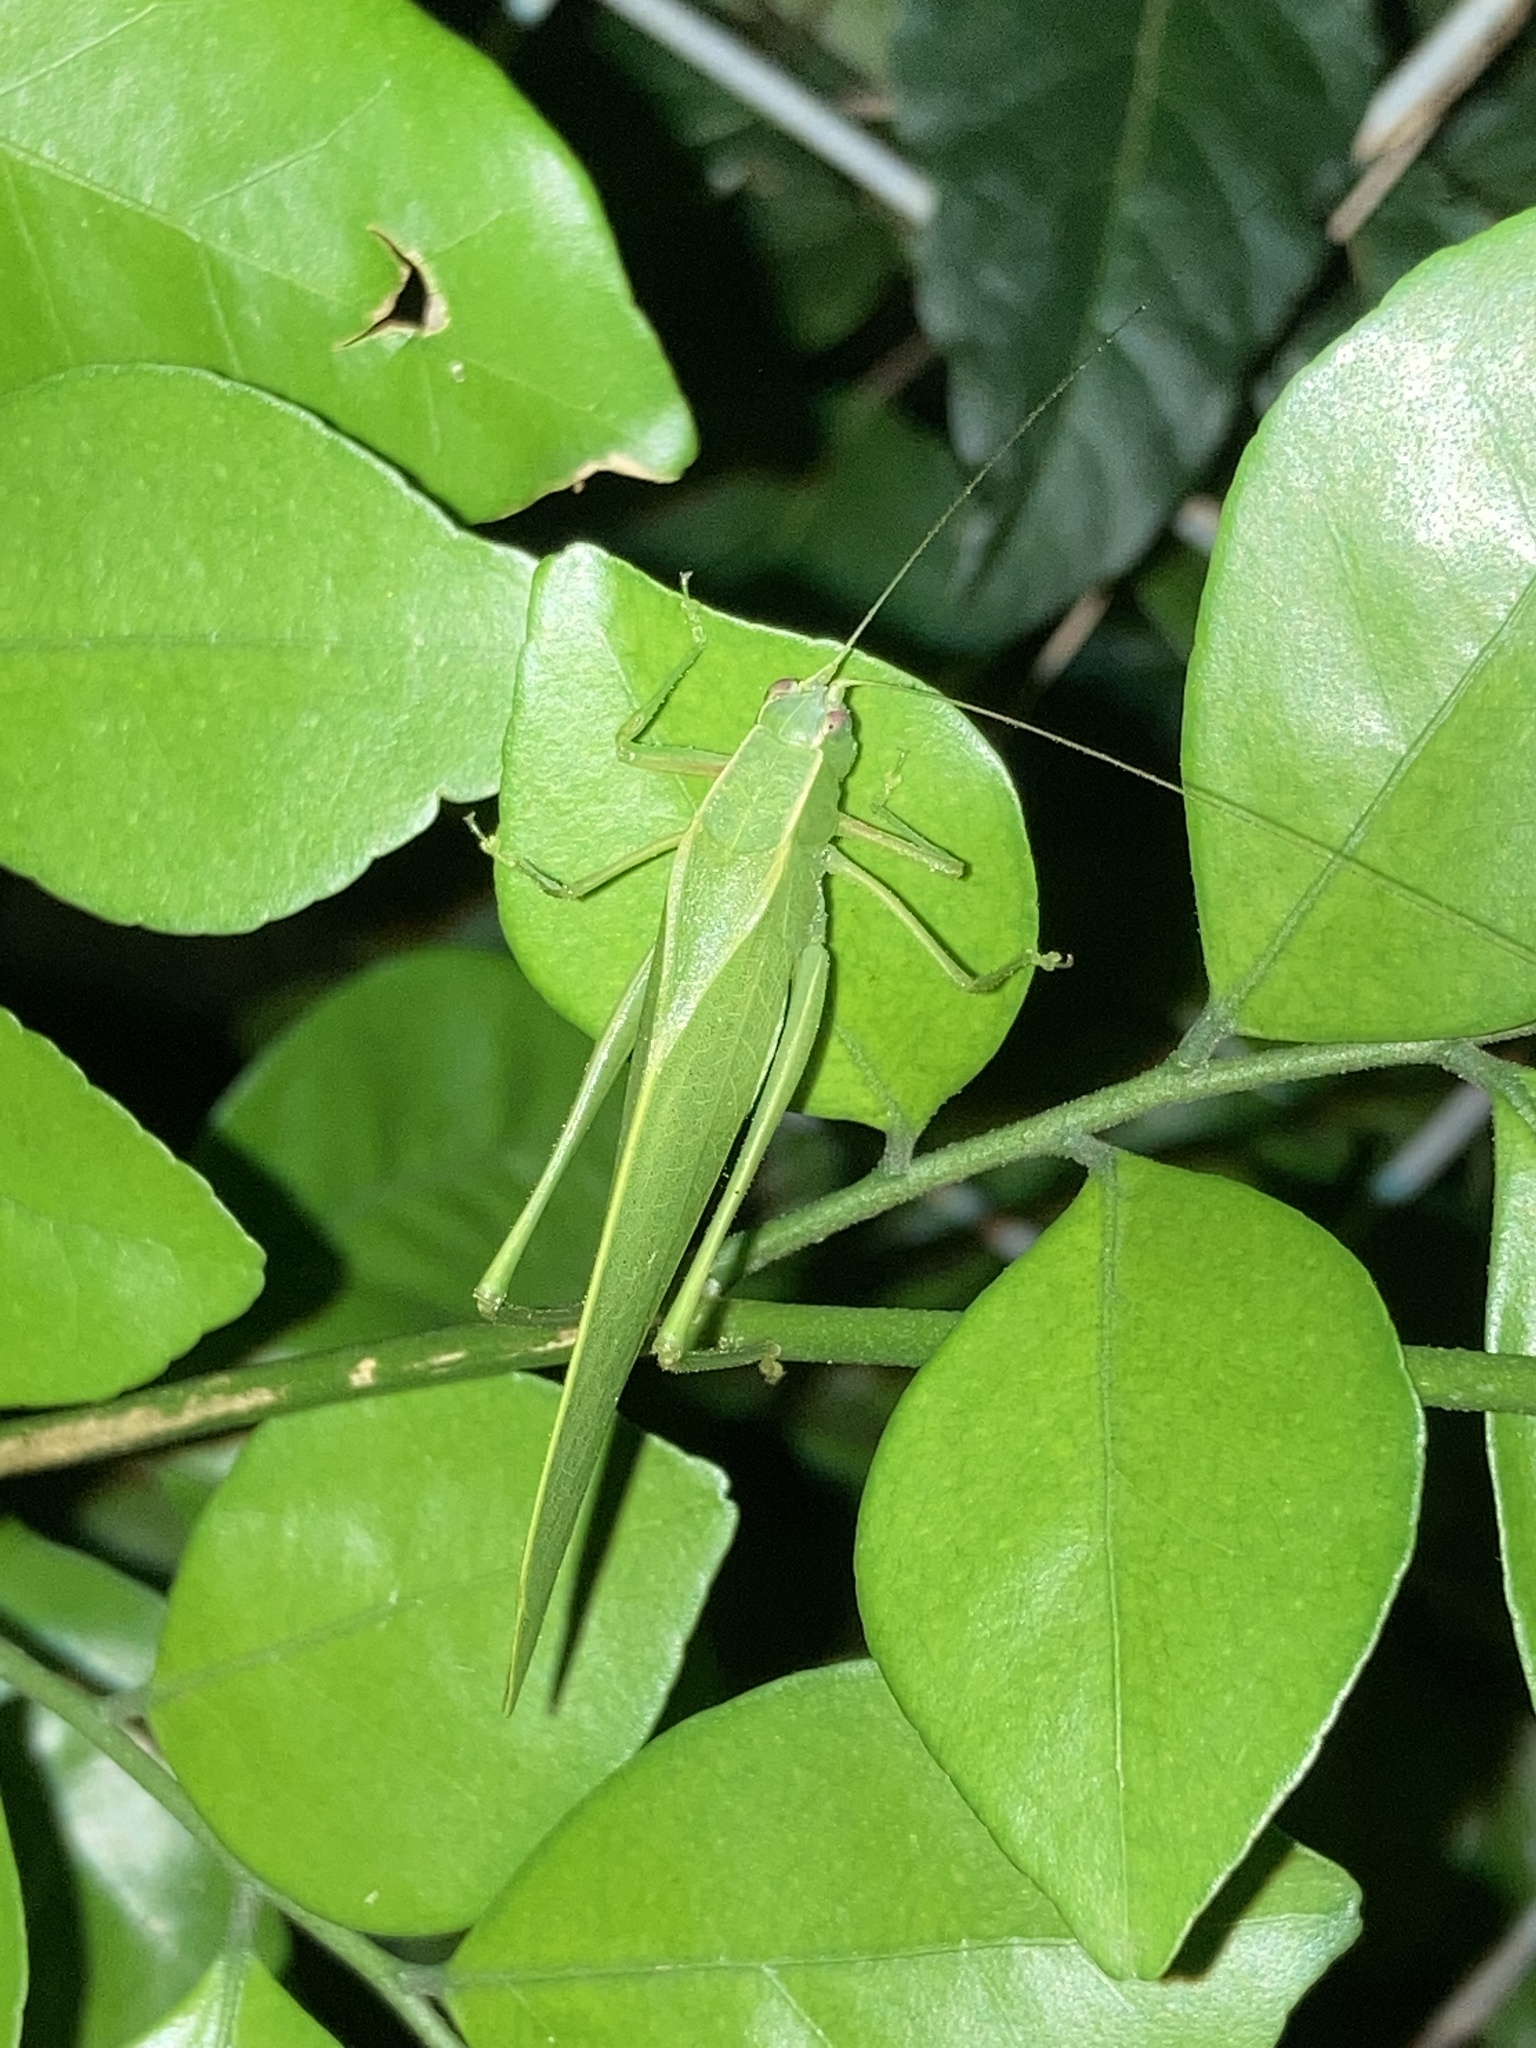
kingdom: Animalia
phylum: Arthropoda
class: Insecta
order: Orthoptera
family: Tettigoniidae
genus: Turpilia
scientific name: Turpilia rostrata
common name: Narrow-beaked katydid
